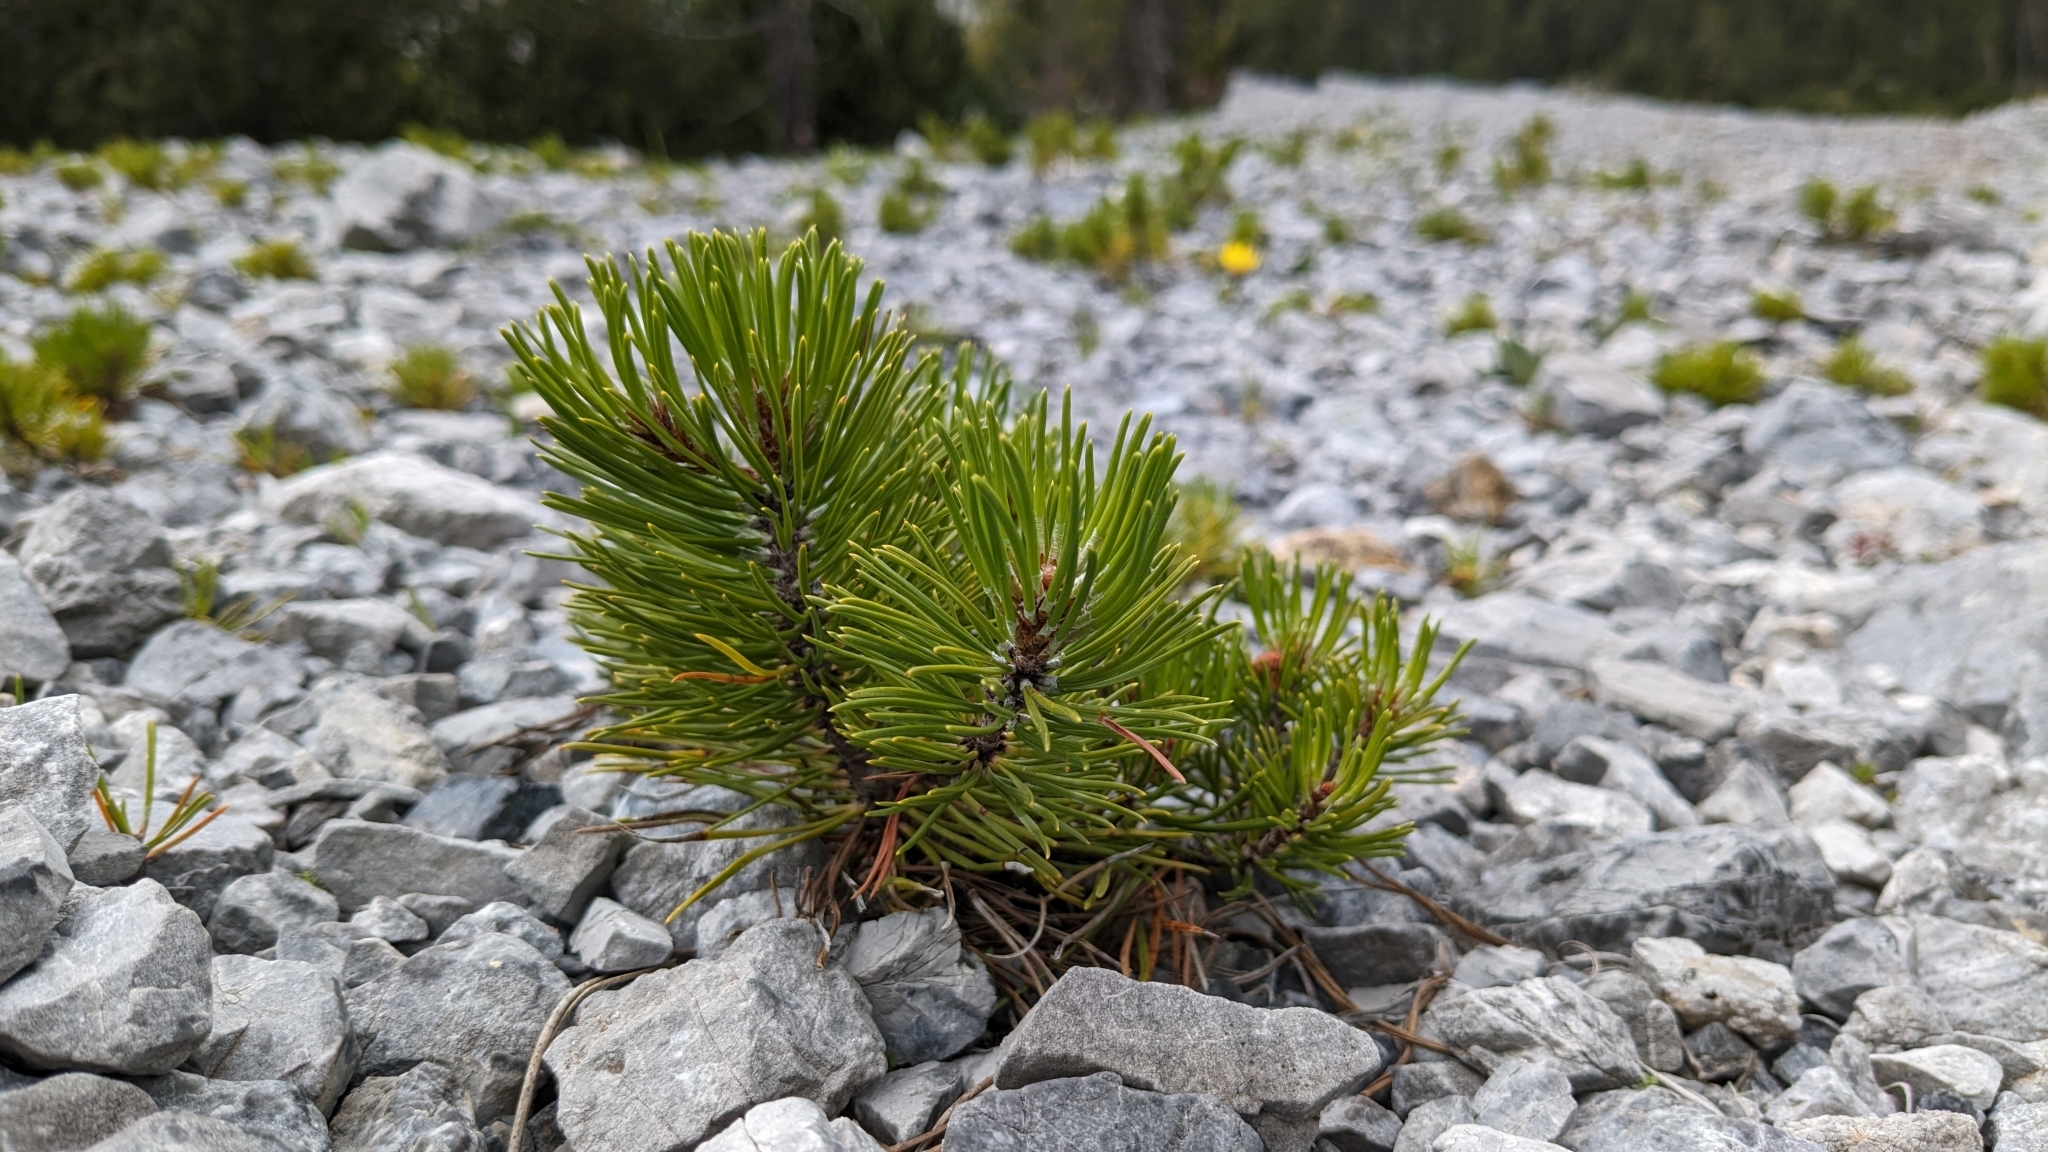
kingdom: Plantae
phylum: Tracheophyta
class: Pinopsida
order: Pinales
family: Pinaceae
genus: Pinus
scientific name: Pinus mugo
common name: Mugo pine
